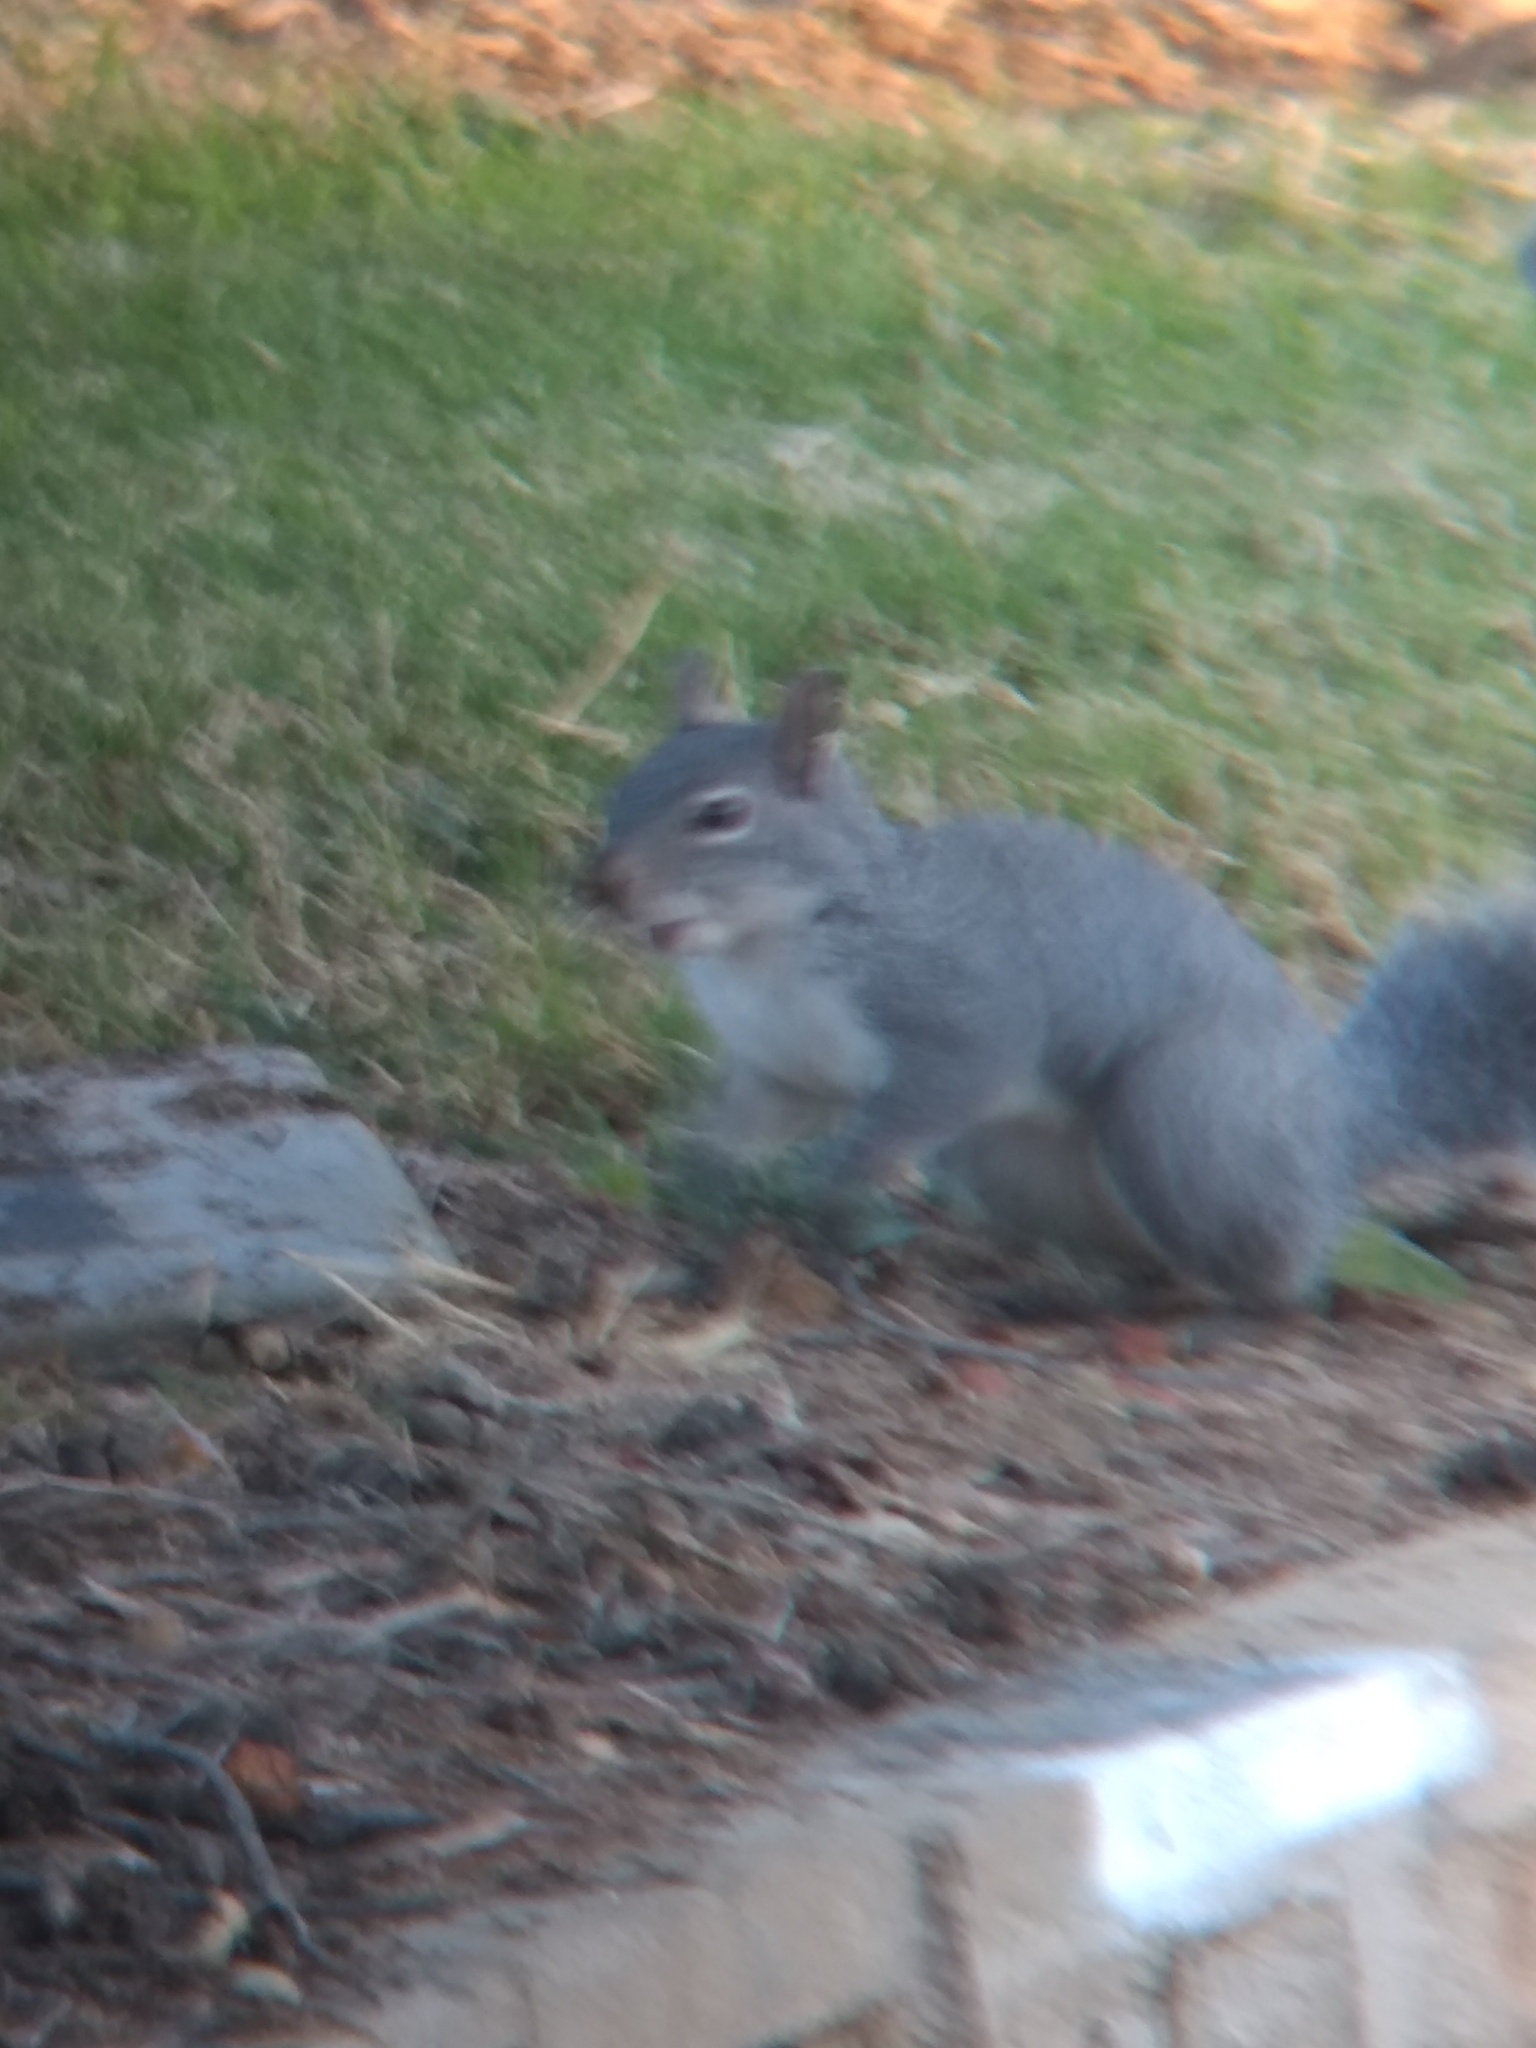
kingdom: Animalia
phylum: Chordata
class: Mammalia
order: Rodentia
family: Sciuridae
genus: Sciurus
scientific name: Sciurus griseus
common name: Western gray squirrel
